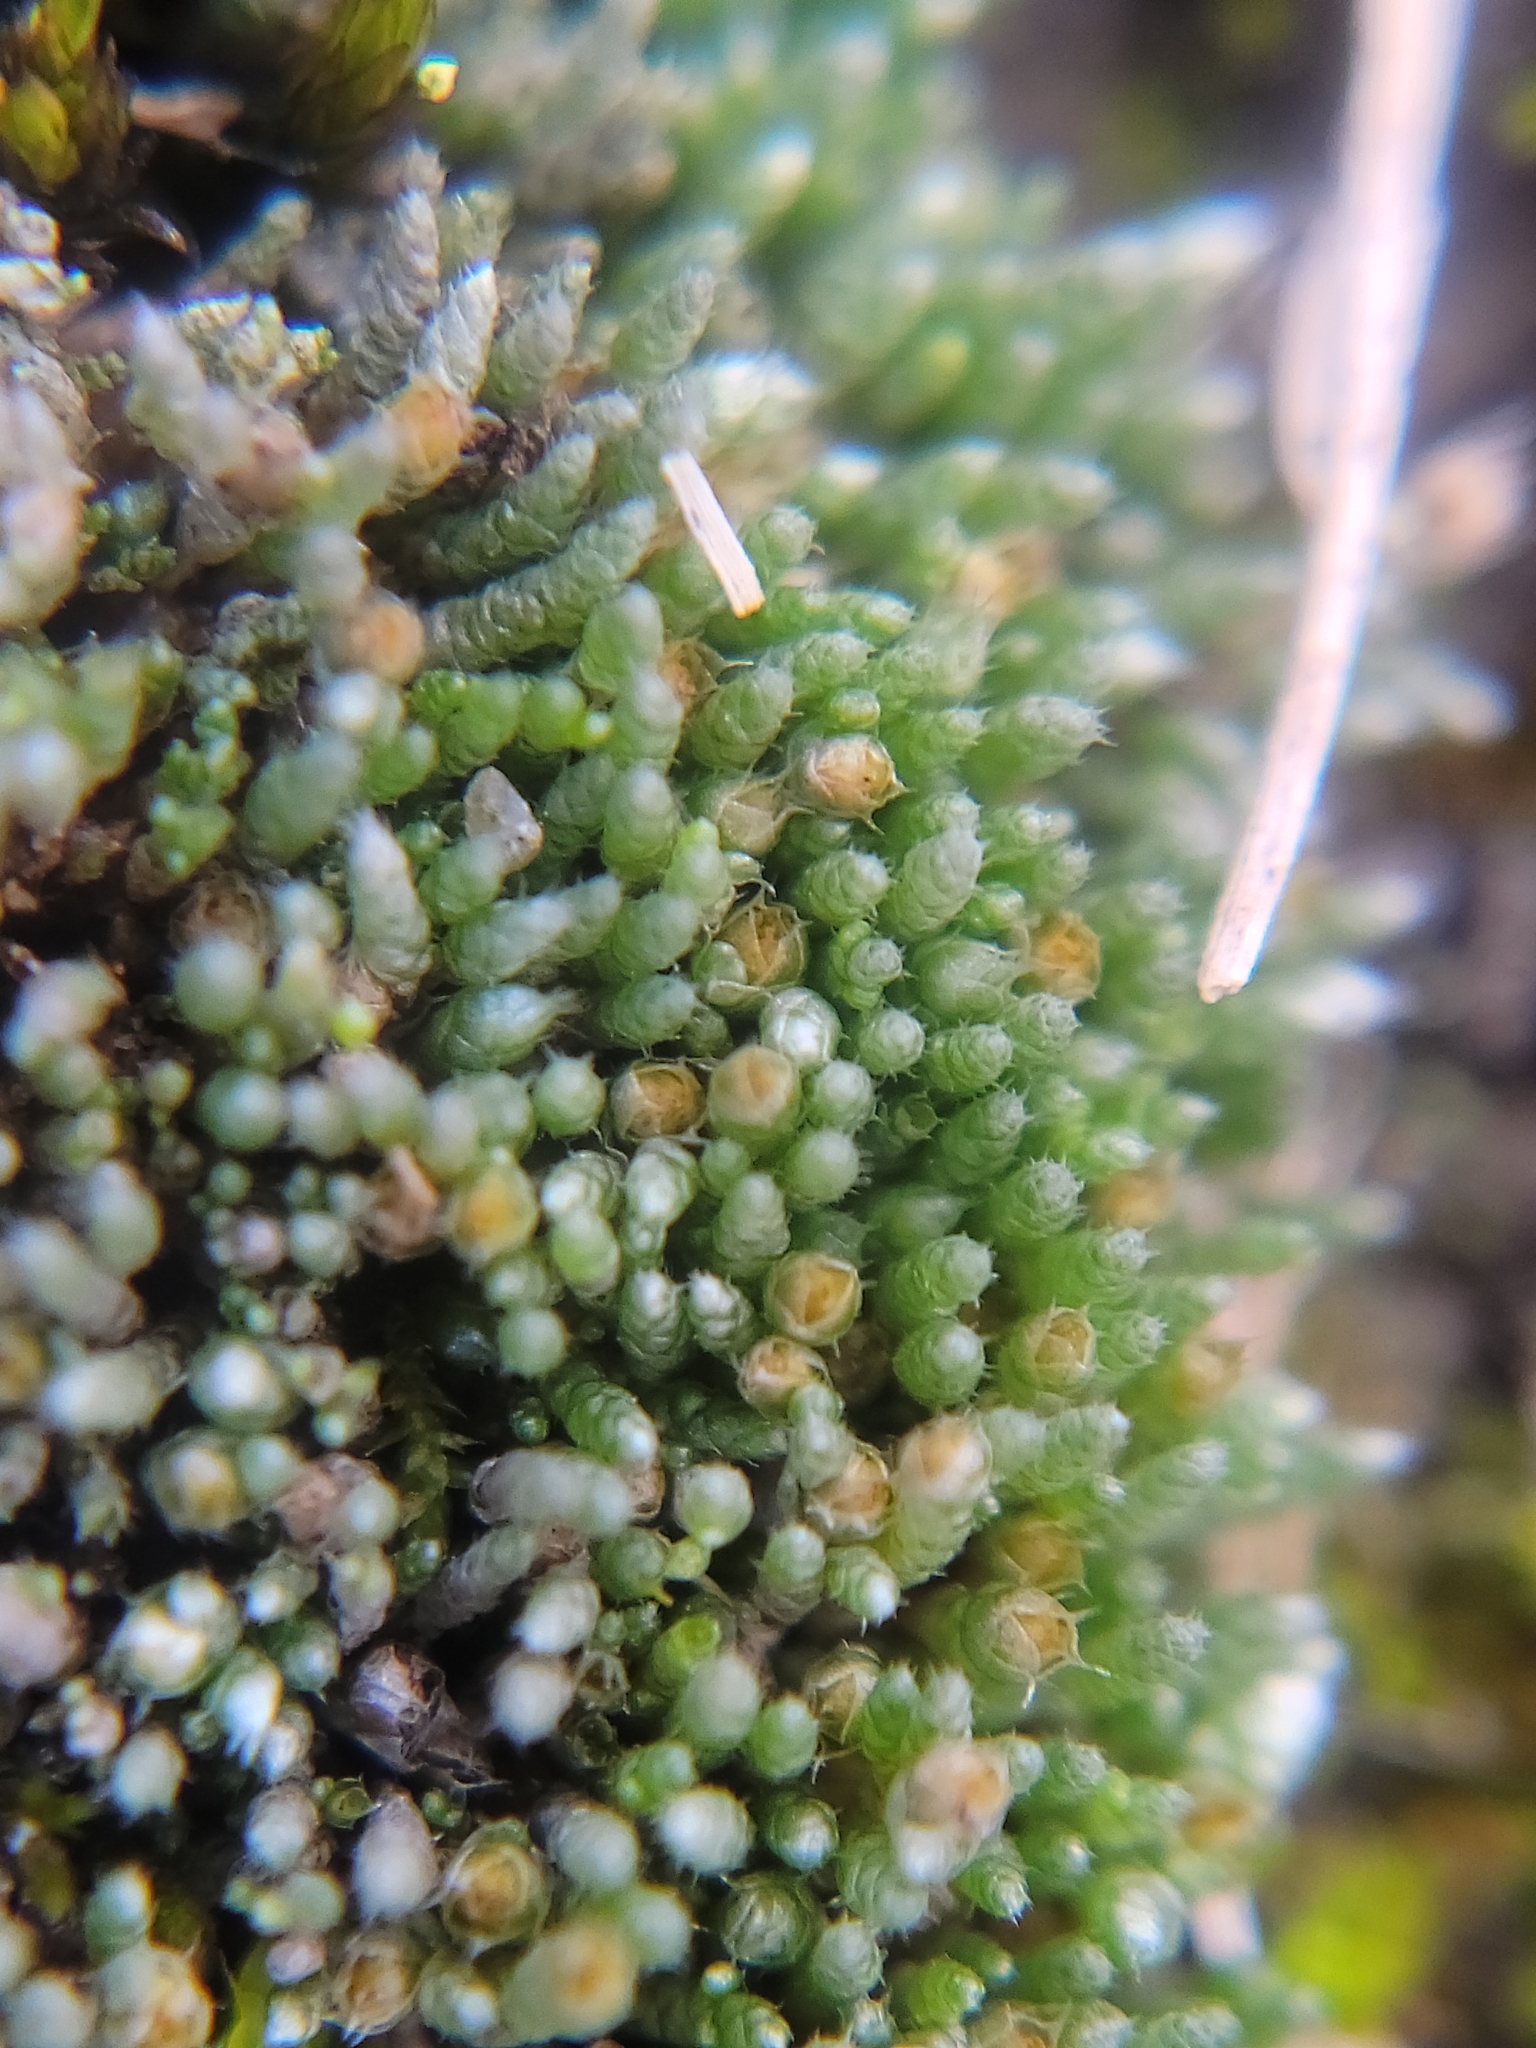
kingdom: Plantae
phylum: Bryophyta
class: Bryopsida
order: Bryales
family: Bryaceae
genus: Bryum
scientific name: Bryum argenteum
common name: Silver-moss
